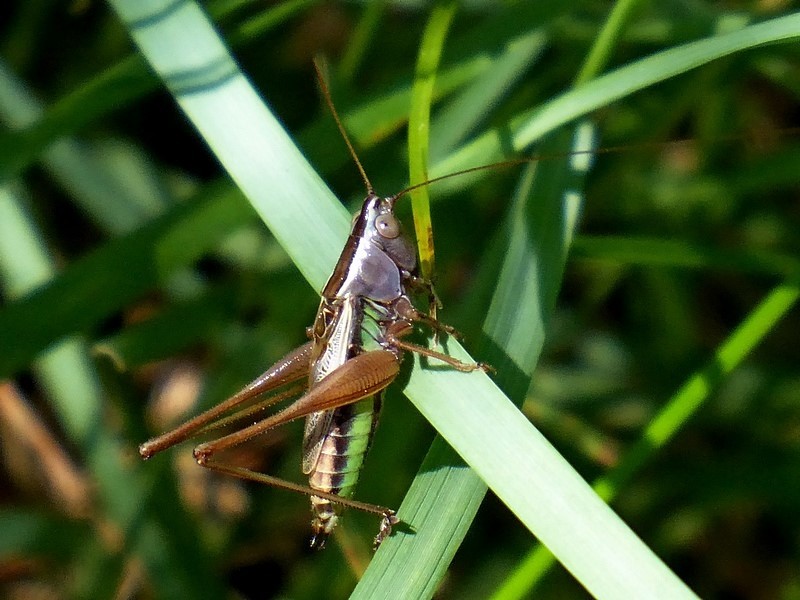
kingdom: Animalia
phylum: Arthropoda
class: Insecta
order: Orthoptera
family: Tettigoniidae
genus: Conocephalus
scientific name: Conocephalus albescens
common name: Whitish meadow katydid
